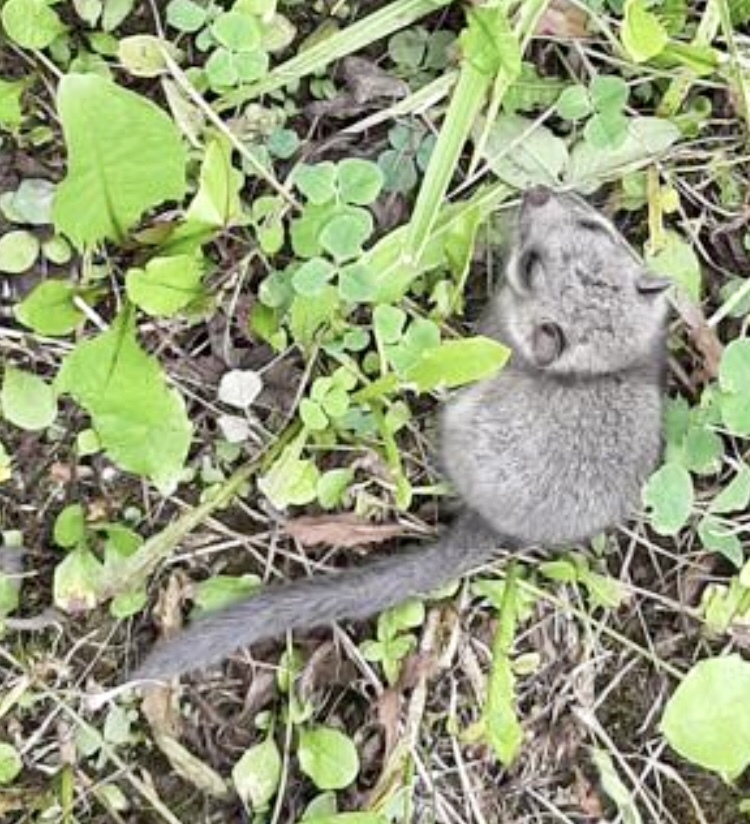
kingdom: Animalia
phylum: Chordata
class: Mammalia
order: Rodentia
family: Gliridae
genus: Glis
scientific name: Glis glis
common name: Fat dormouse
